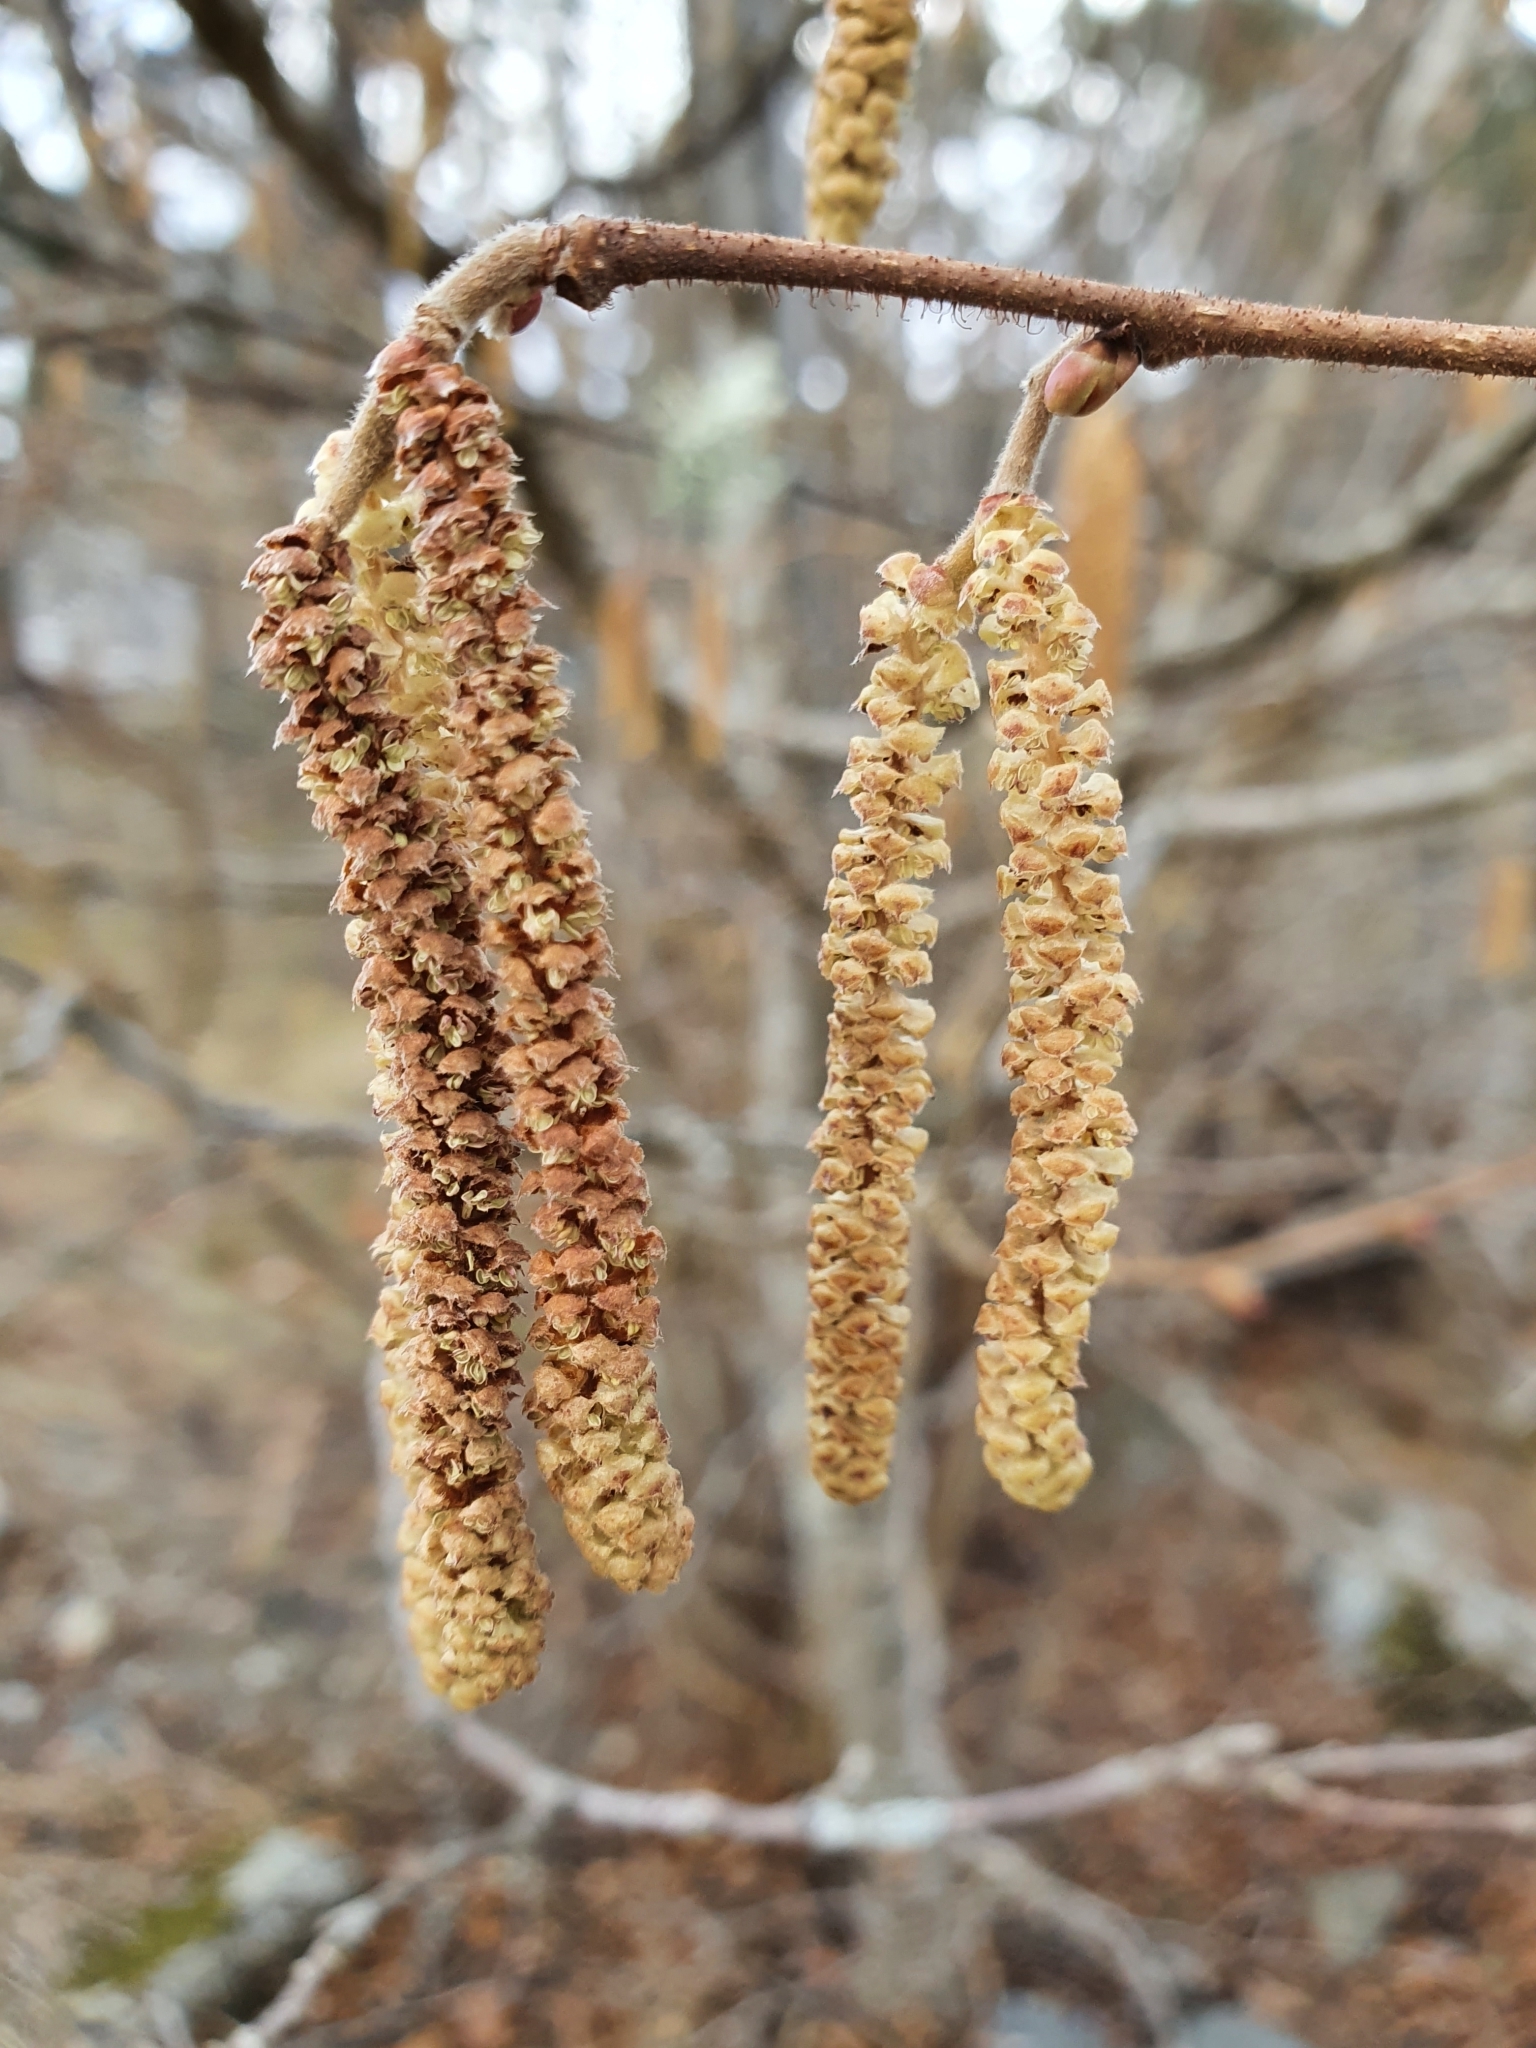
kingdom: Plantae
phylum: Tracheophyta
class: Magnoliopsida
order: Fagales
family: Betulaceae
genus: Corylus
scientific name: Corylus avellana
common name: European hazel
